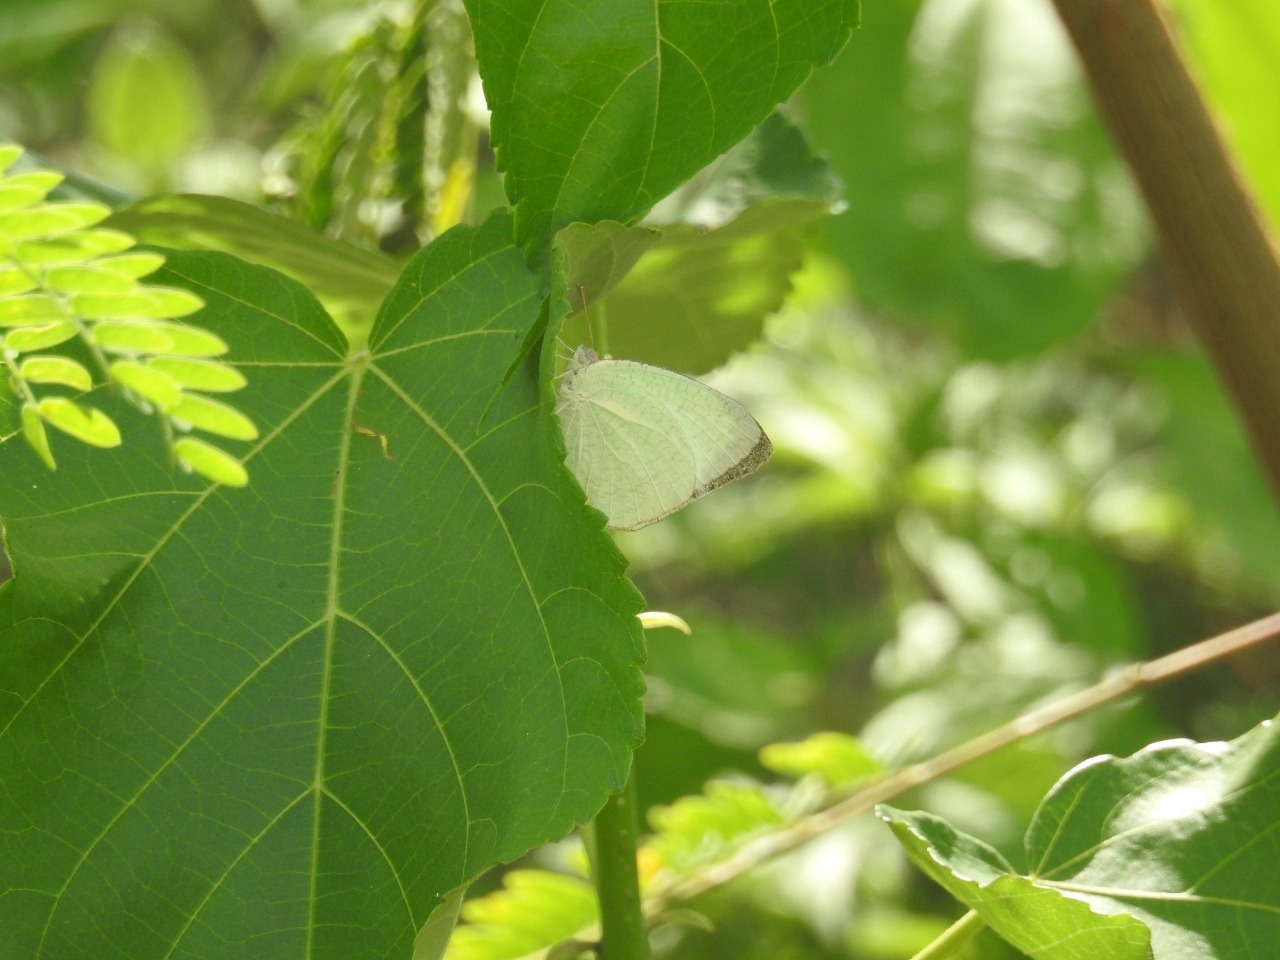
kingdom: Animalia
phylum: Arthropoda
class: Insecta
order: Lepidoptera
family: Pieridae
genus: Catopsilia
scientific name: Catopsilia pyranthe
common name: Mottled emigrant
